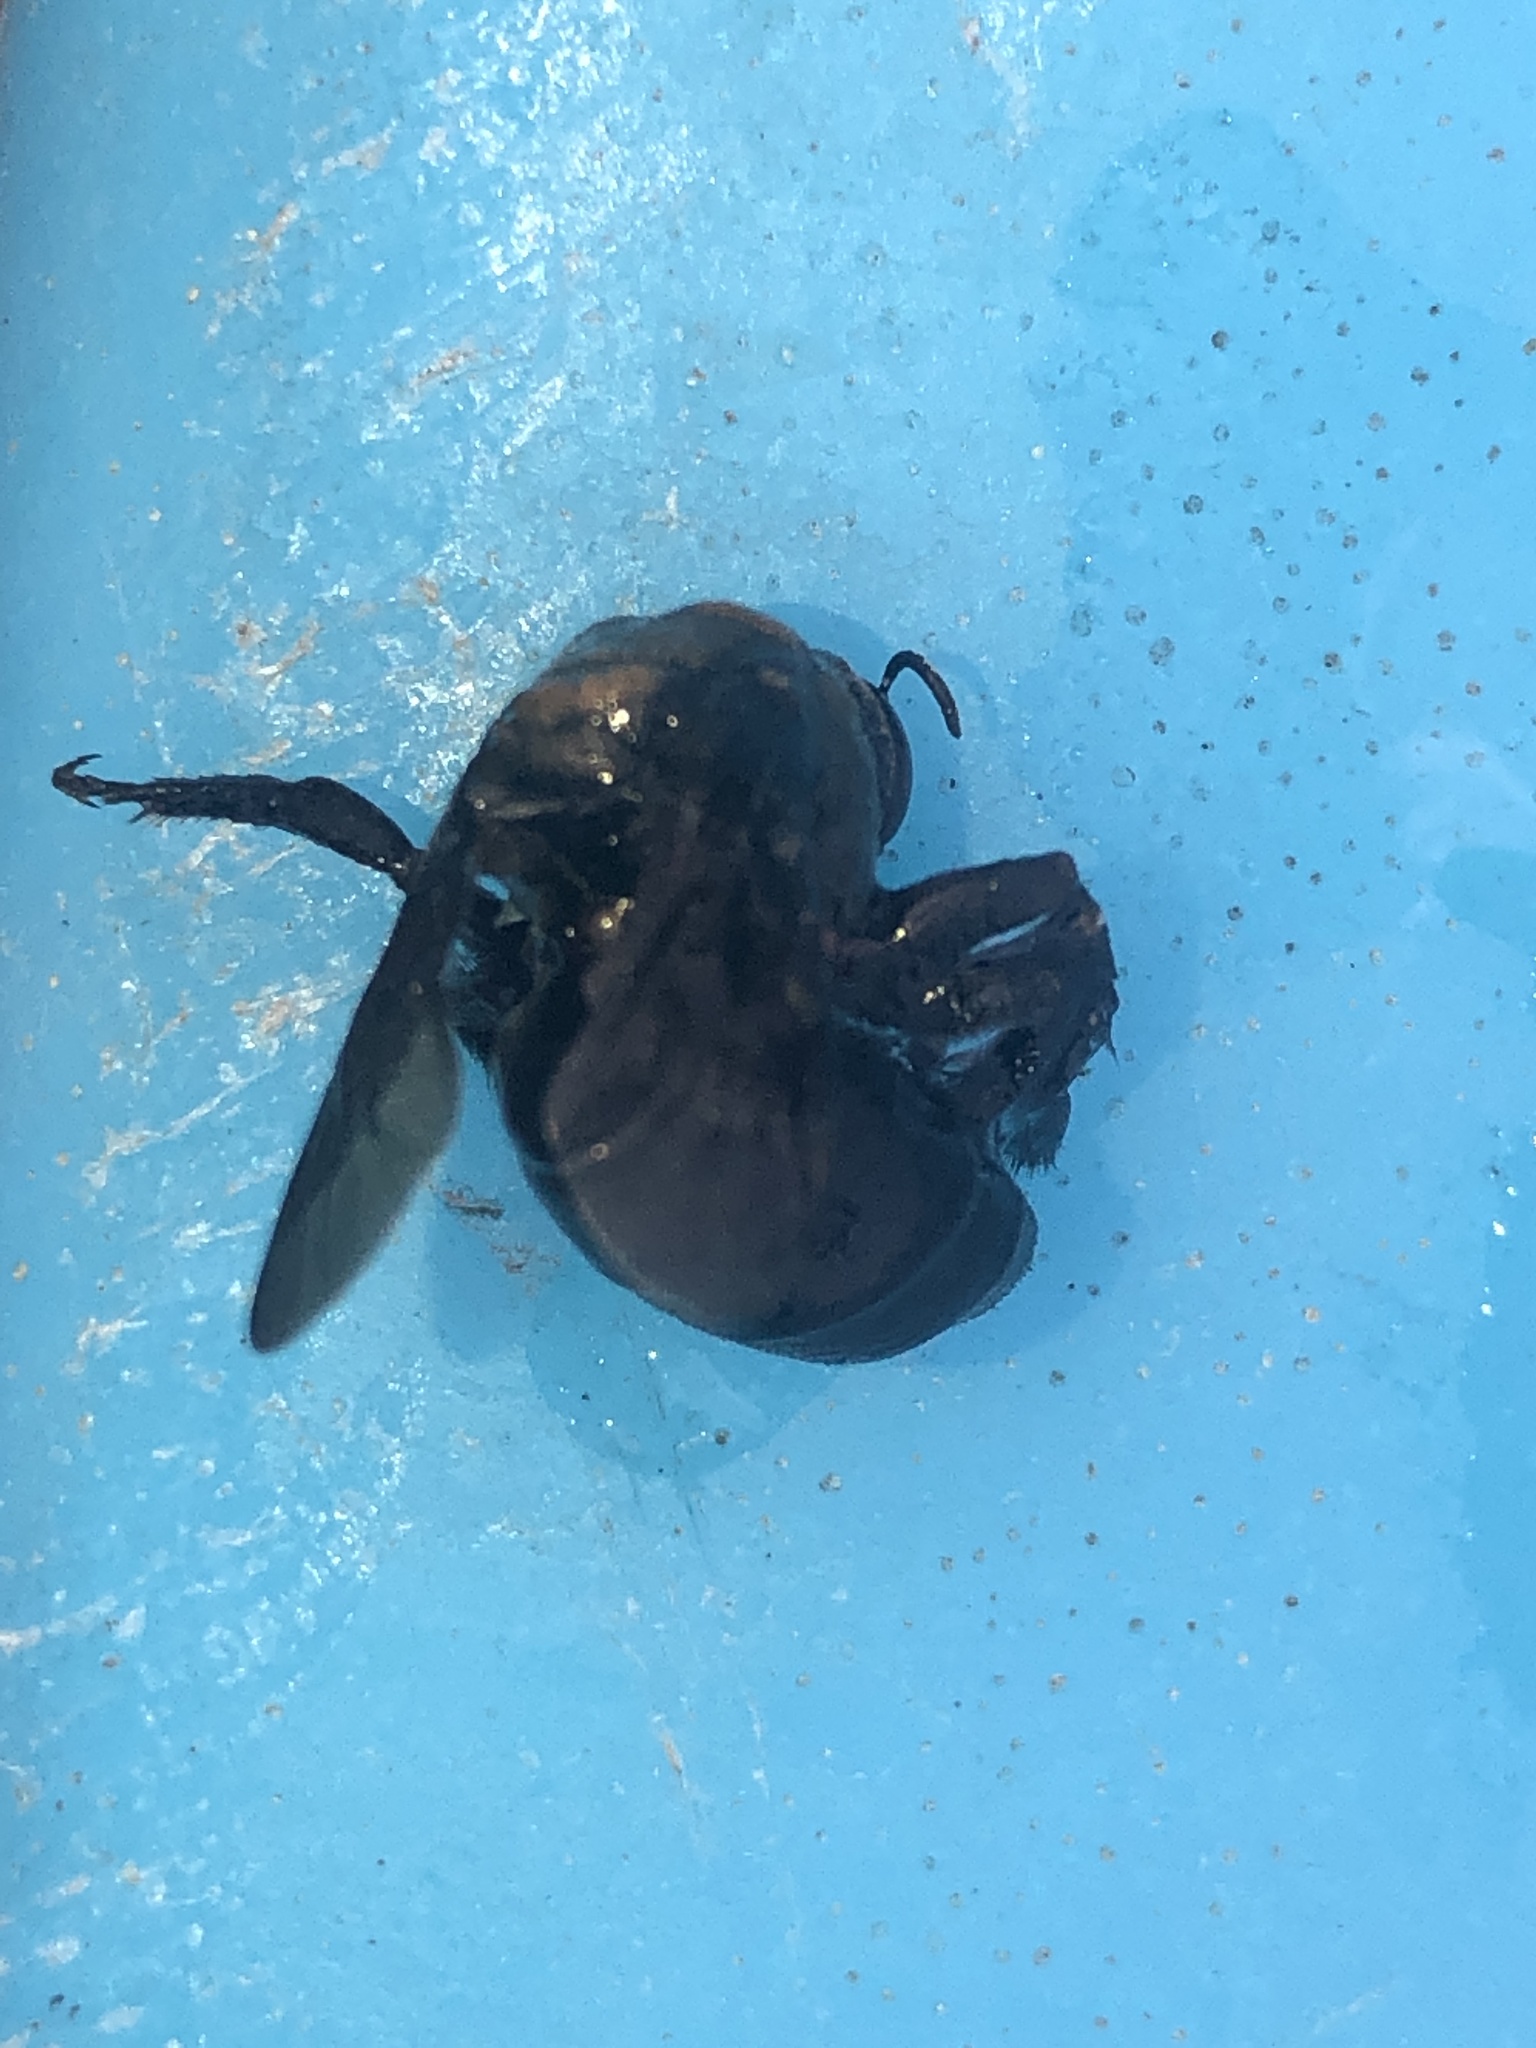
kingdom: Animalia
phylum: Arthropoda
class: Insecta
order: Hymenoptera
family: Apidae
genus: Xylocopa
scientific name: Xylocopa virginica
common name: Carpenter bee
